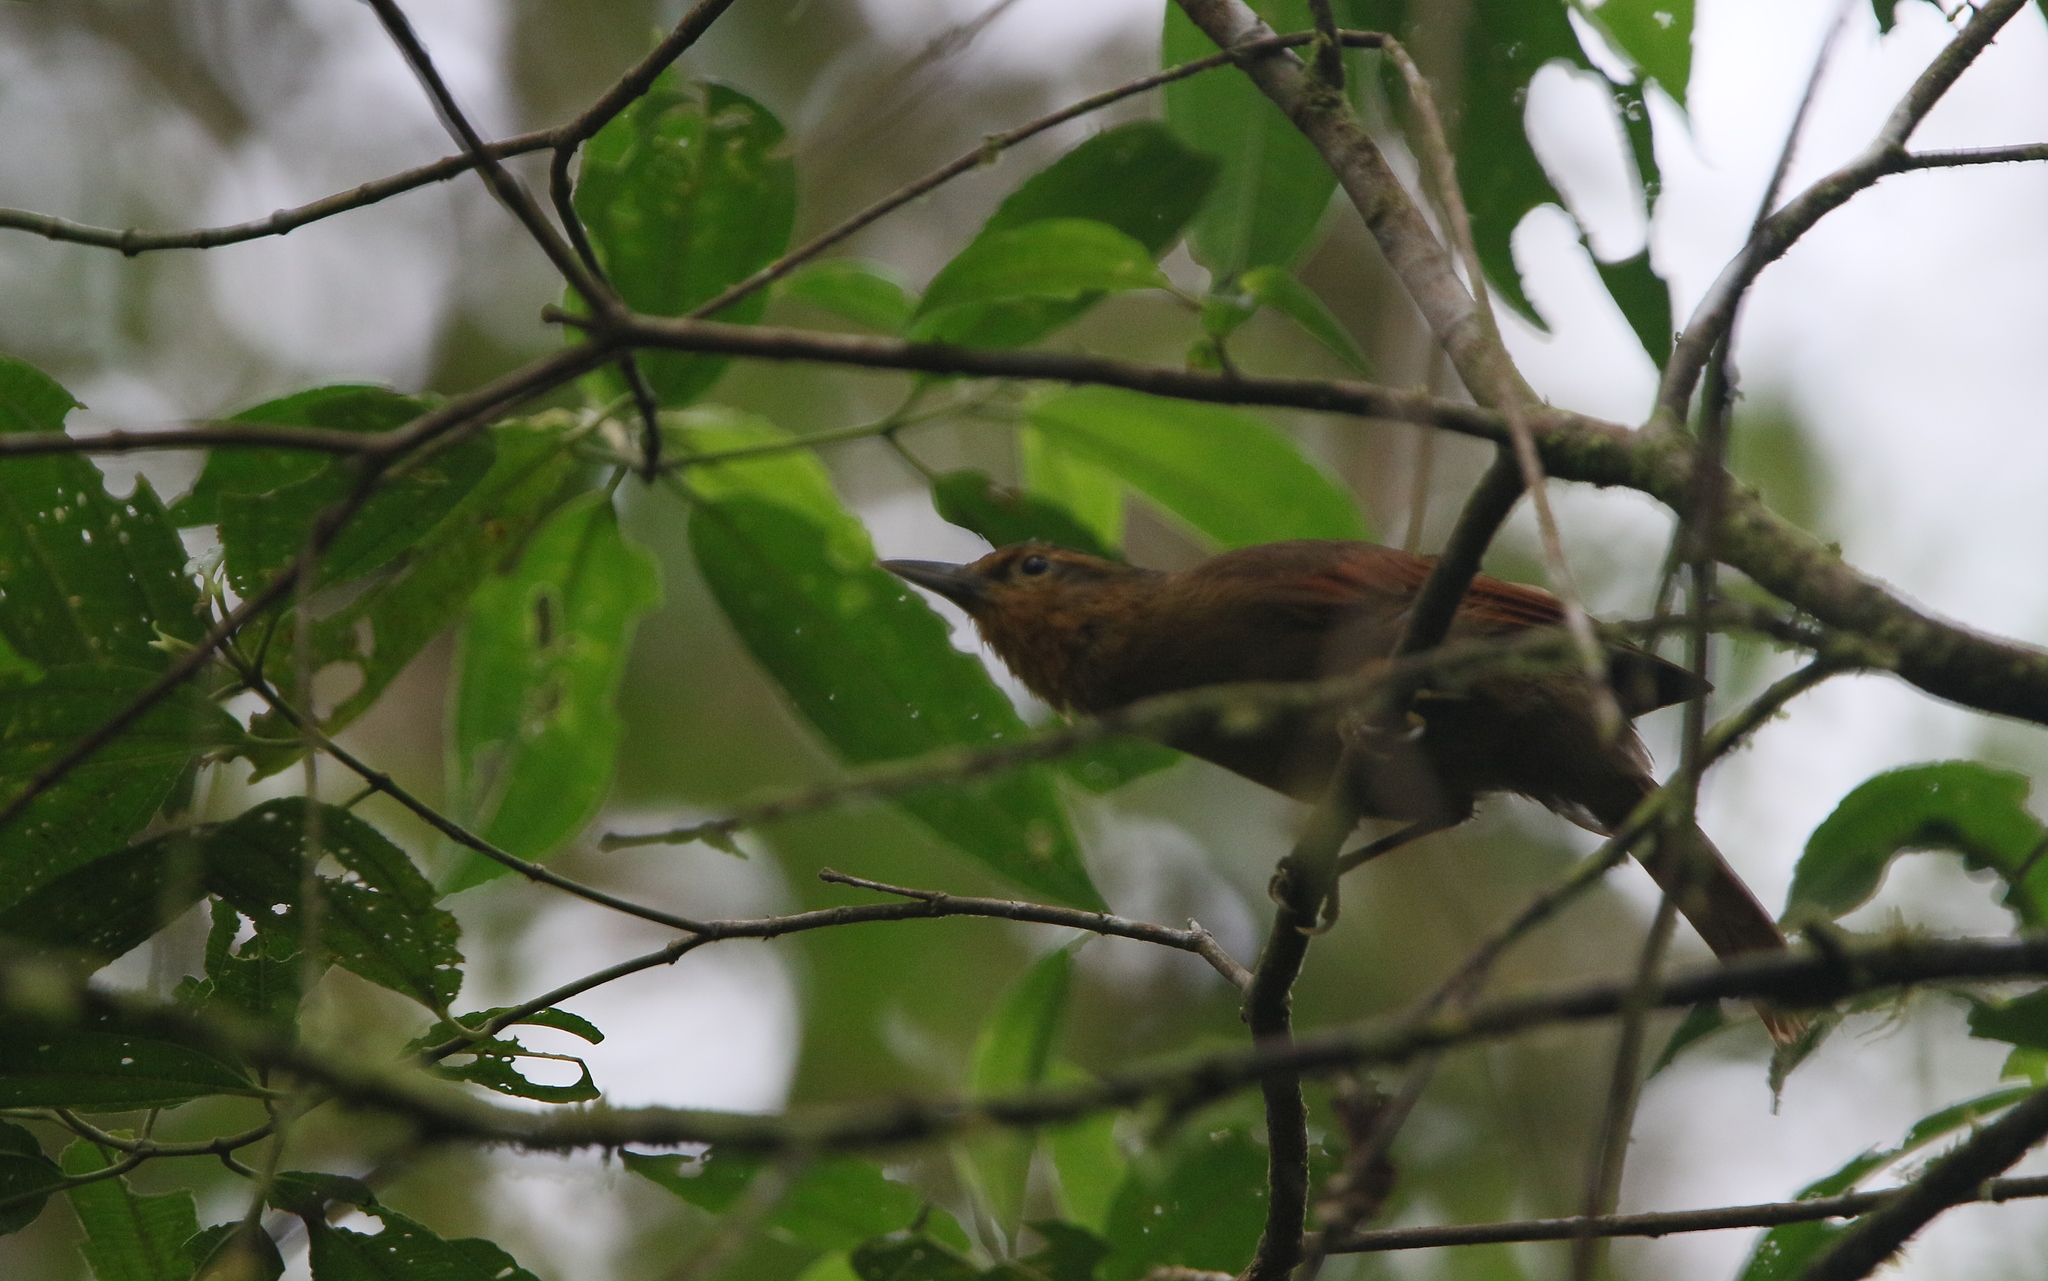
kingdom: Animalia
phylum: Chordata
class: Aves
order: Passeriformes
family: Furnariidae
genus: Philydor
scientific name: Philydor rufum
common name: Buff-fronted foliage-gleaner
